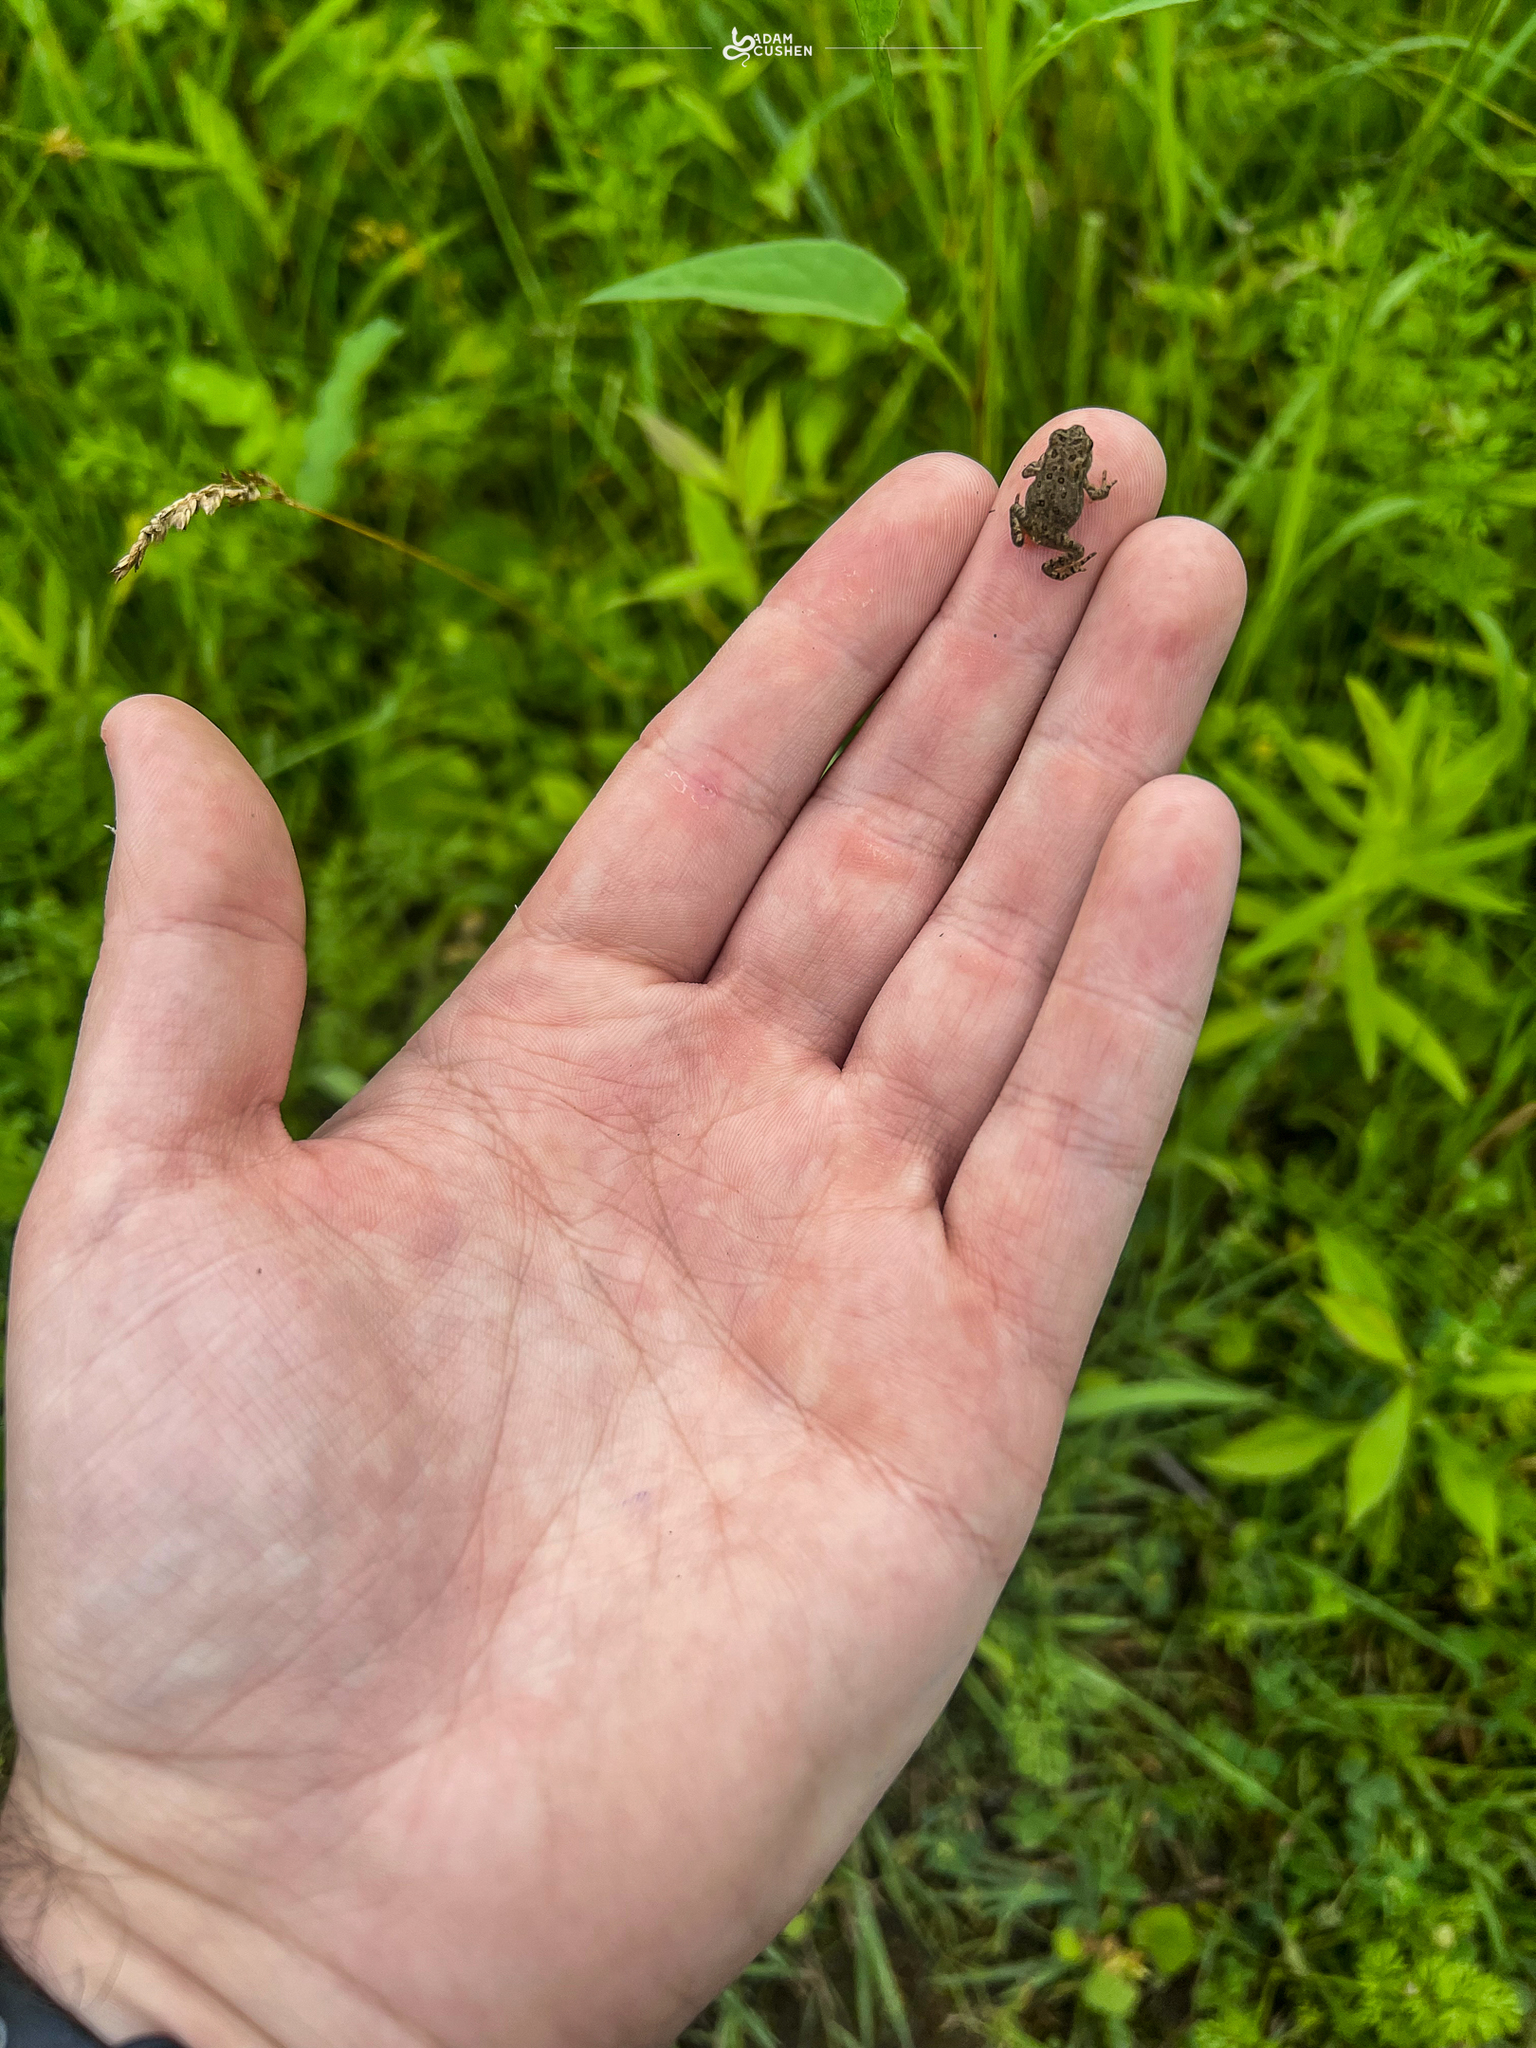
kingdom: Animalia
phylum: Chordata
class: Amphibia
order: Anura
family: Bufonidae
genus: Anaxyrus
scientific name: Anaxyrus americanus
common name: American toad
